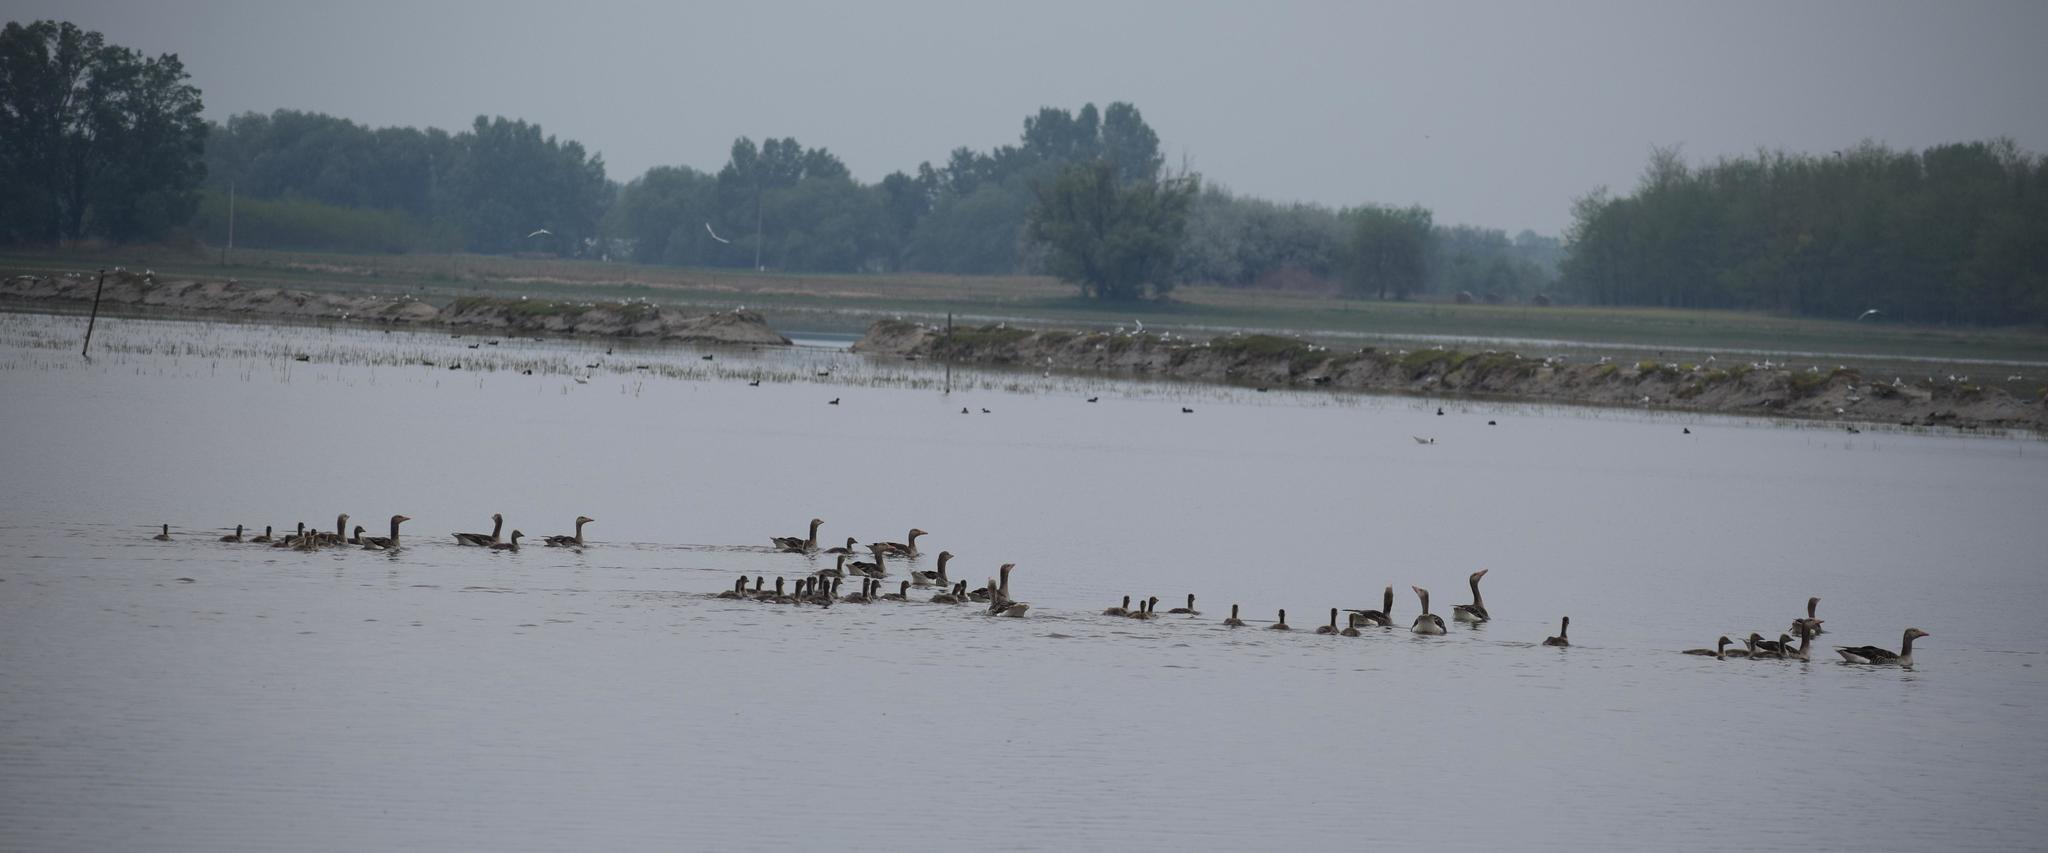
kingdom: Animalia
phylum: Chordata
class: Aves
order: Anseriformes
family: Anatidae
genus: Anser
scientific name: Anser anser
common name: Greylag goose
